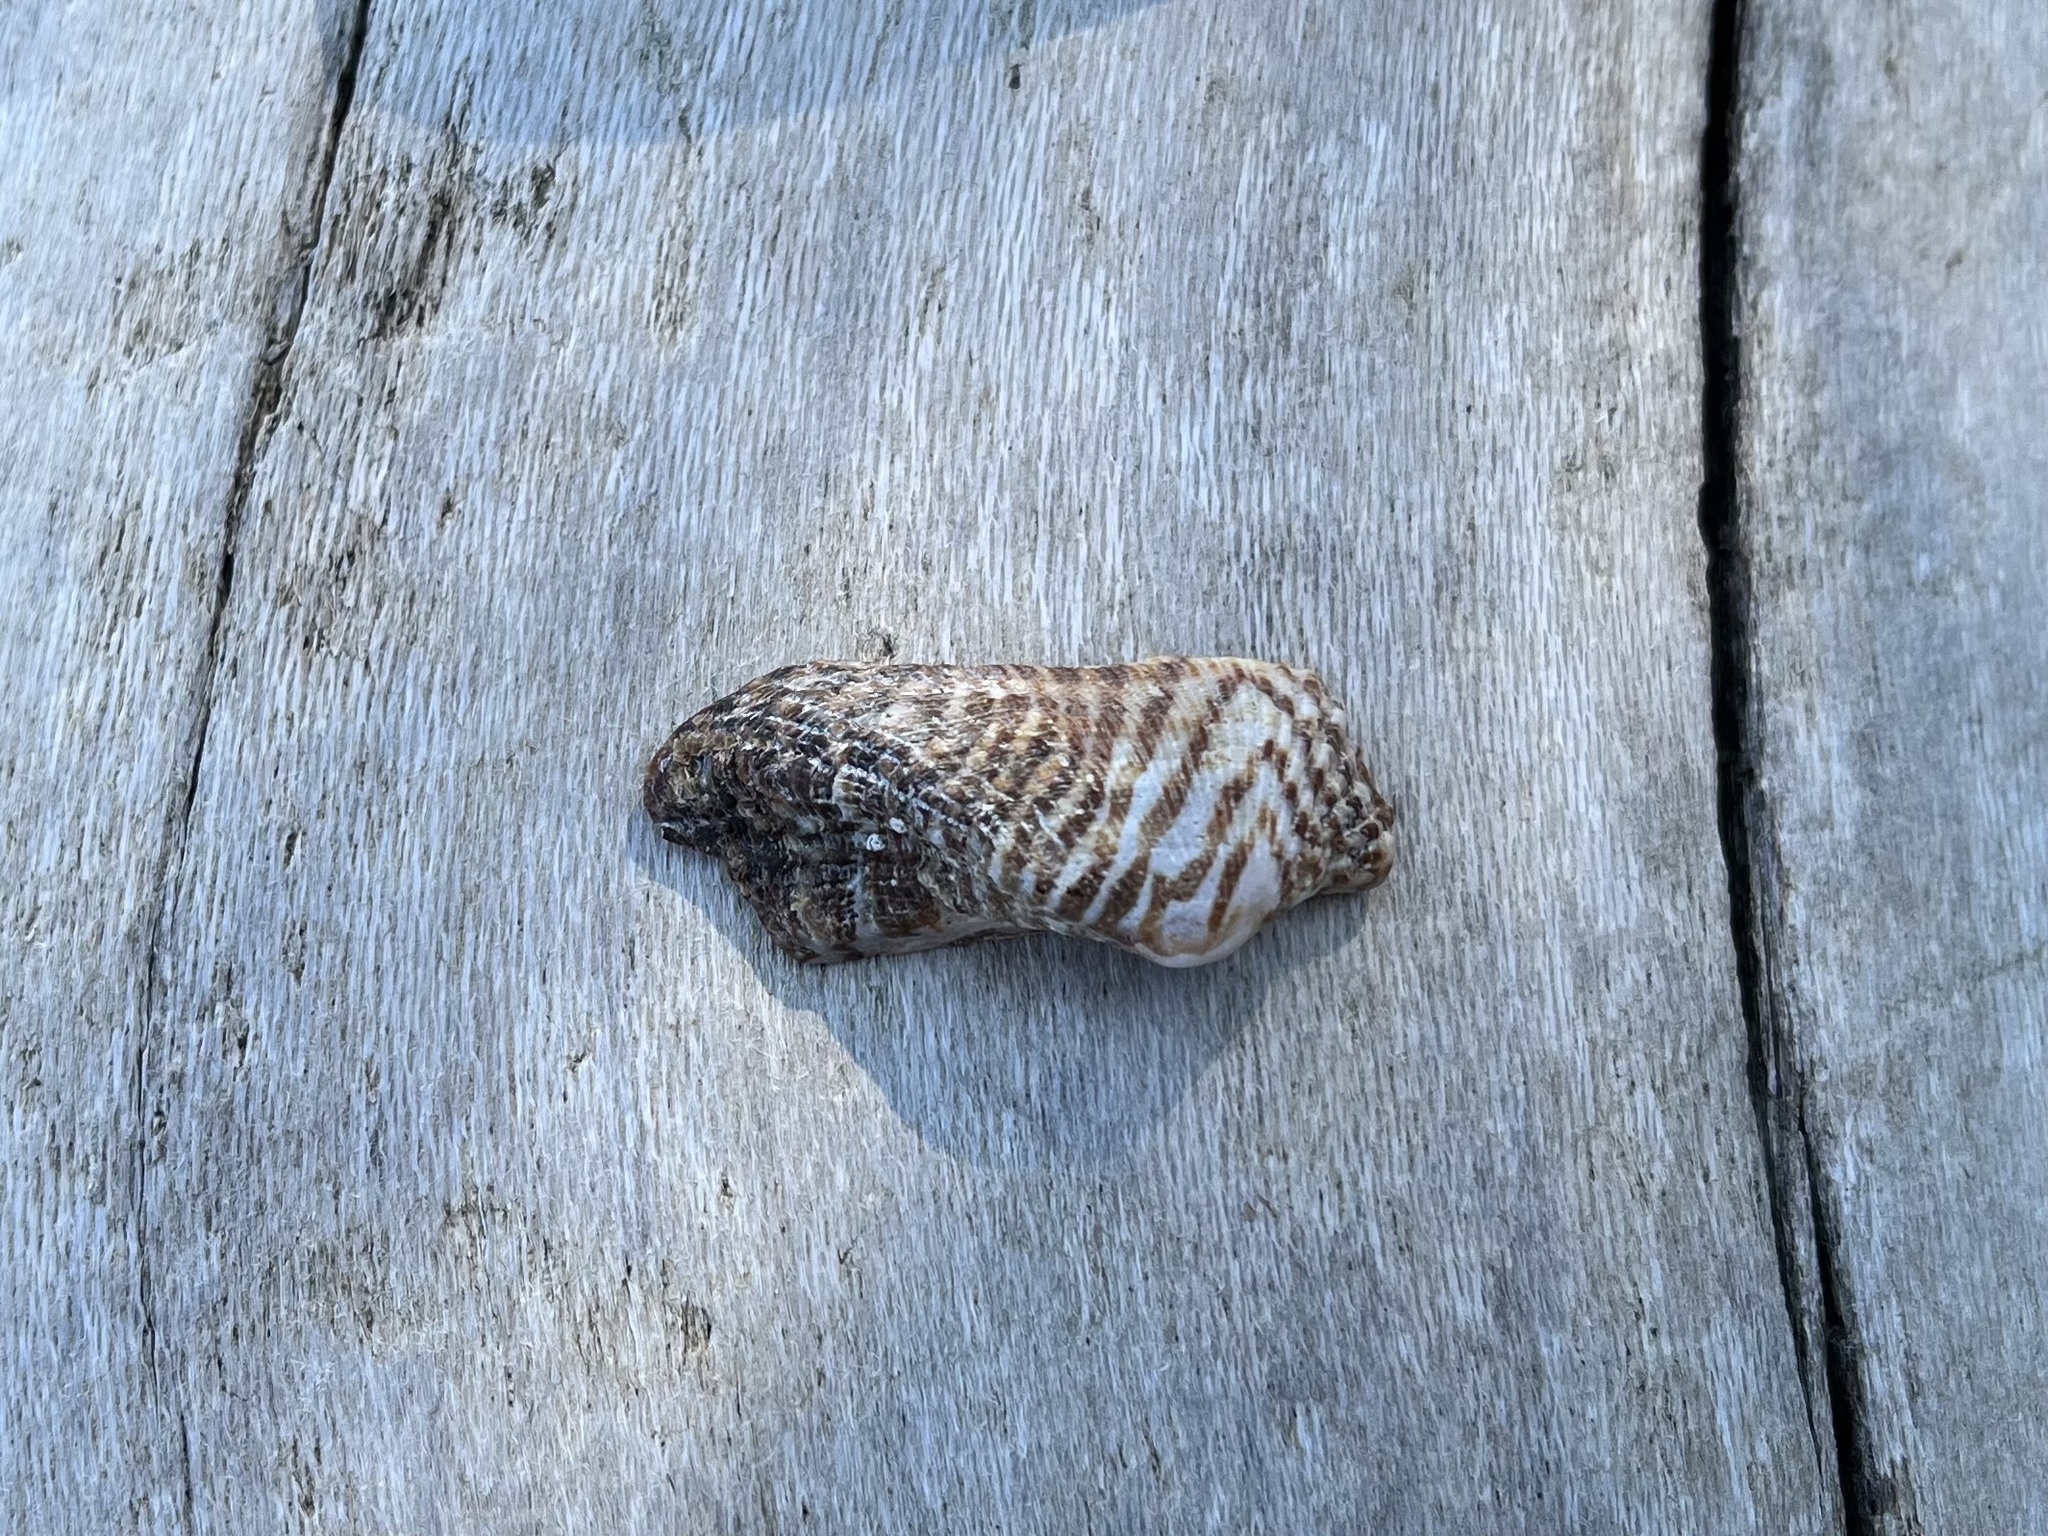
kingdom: Animalia
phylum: Mollusca
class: Bivalvia
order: Arcida
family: Arcidae
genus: Arca
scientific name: Arca noae
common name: Noah's arch
